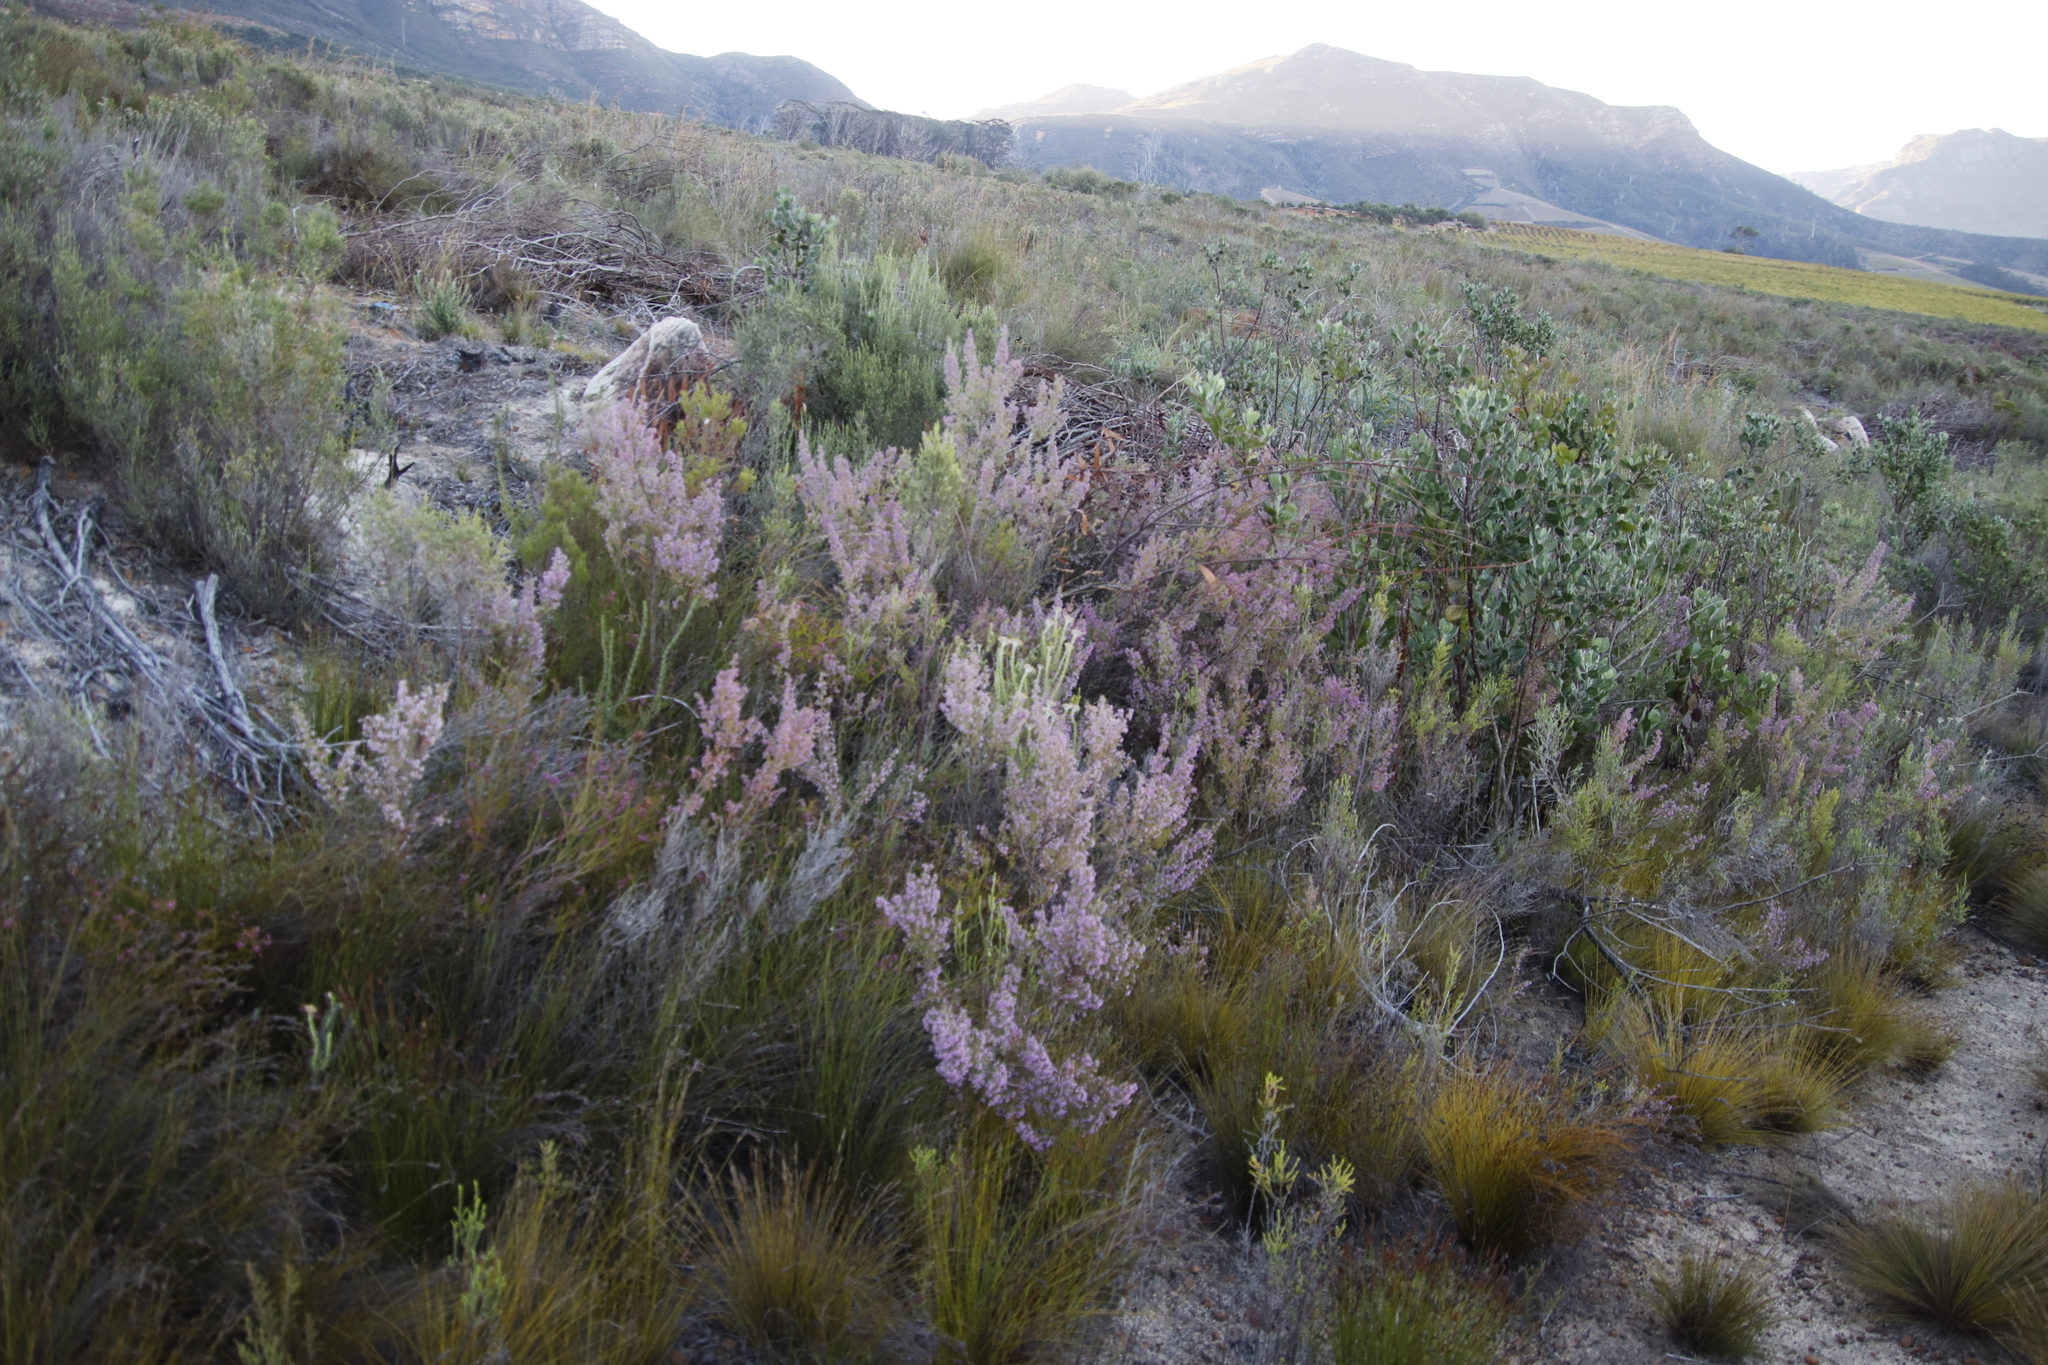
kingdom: Plantae
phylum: Tracheophyta
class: Magnoliopsida
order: Ericales
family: Ericaceae
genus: Erica
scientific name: Erica hirtiflora
